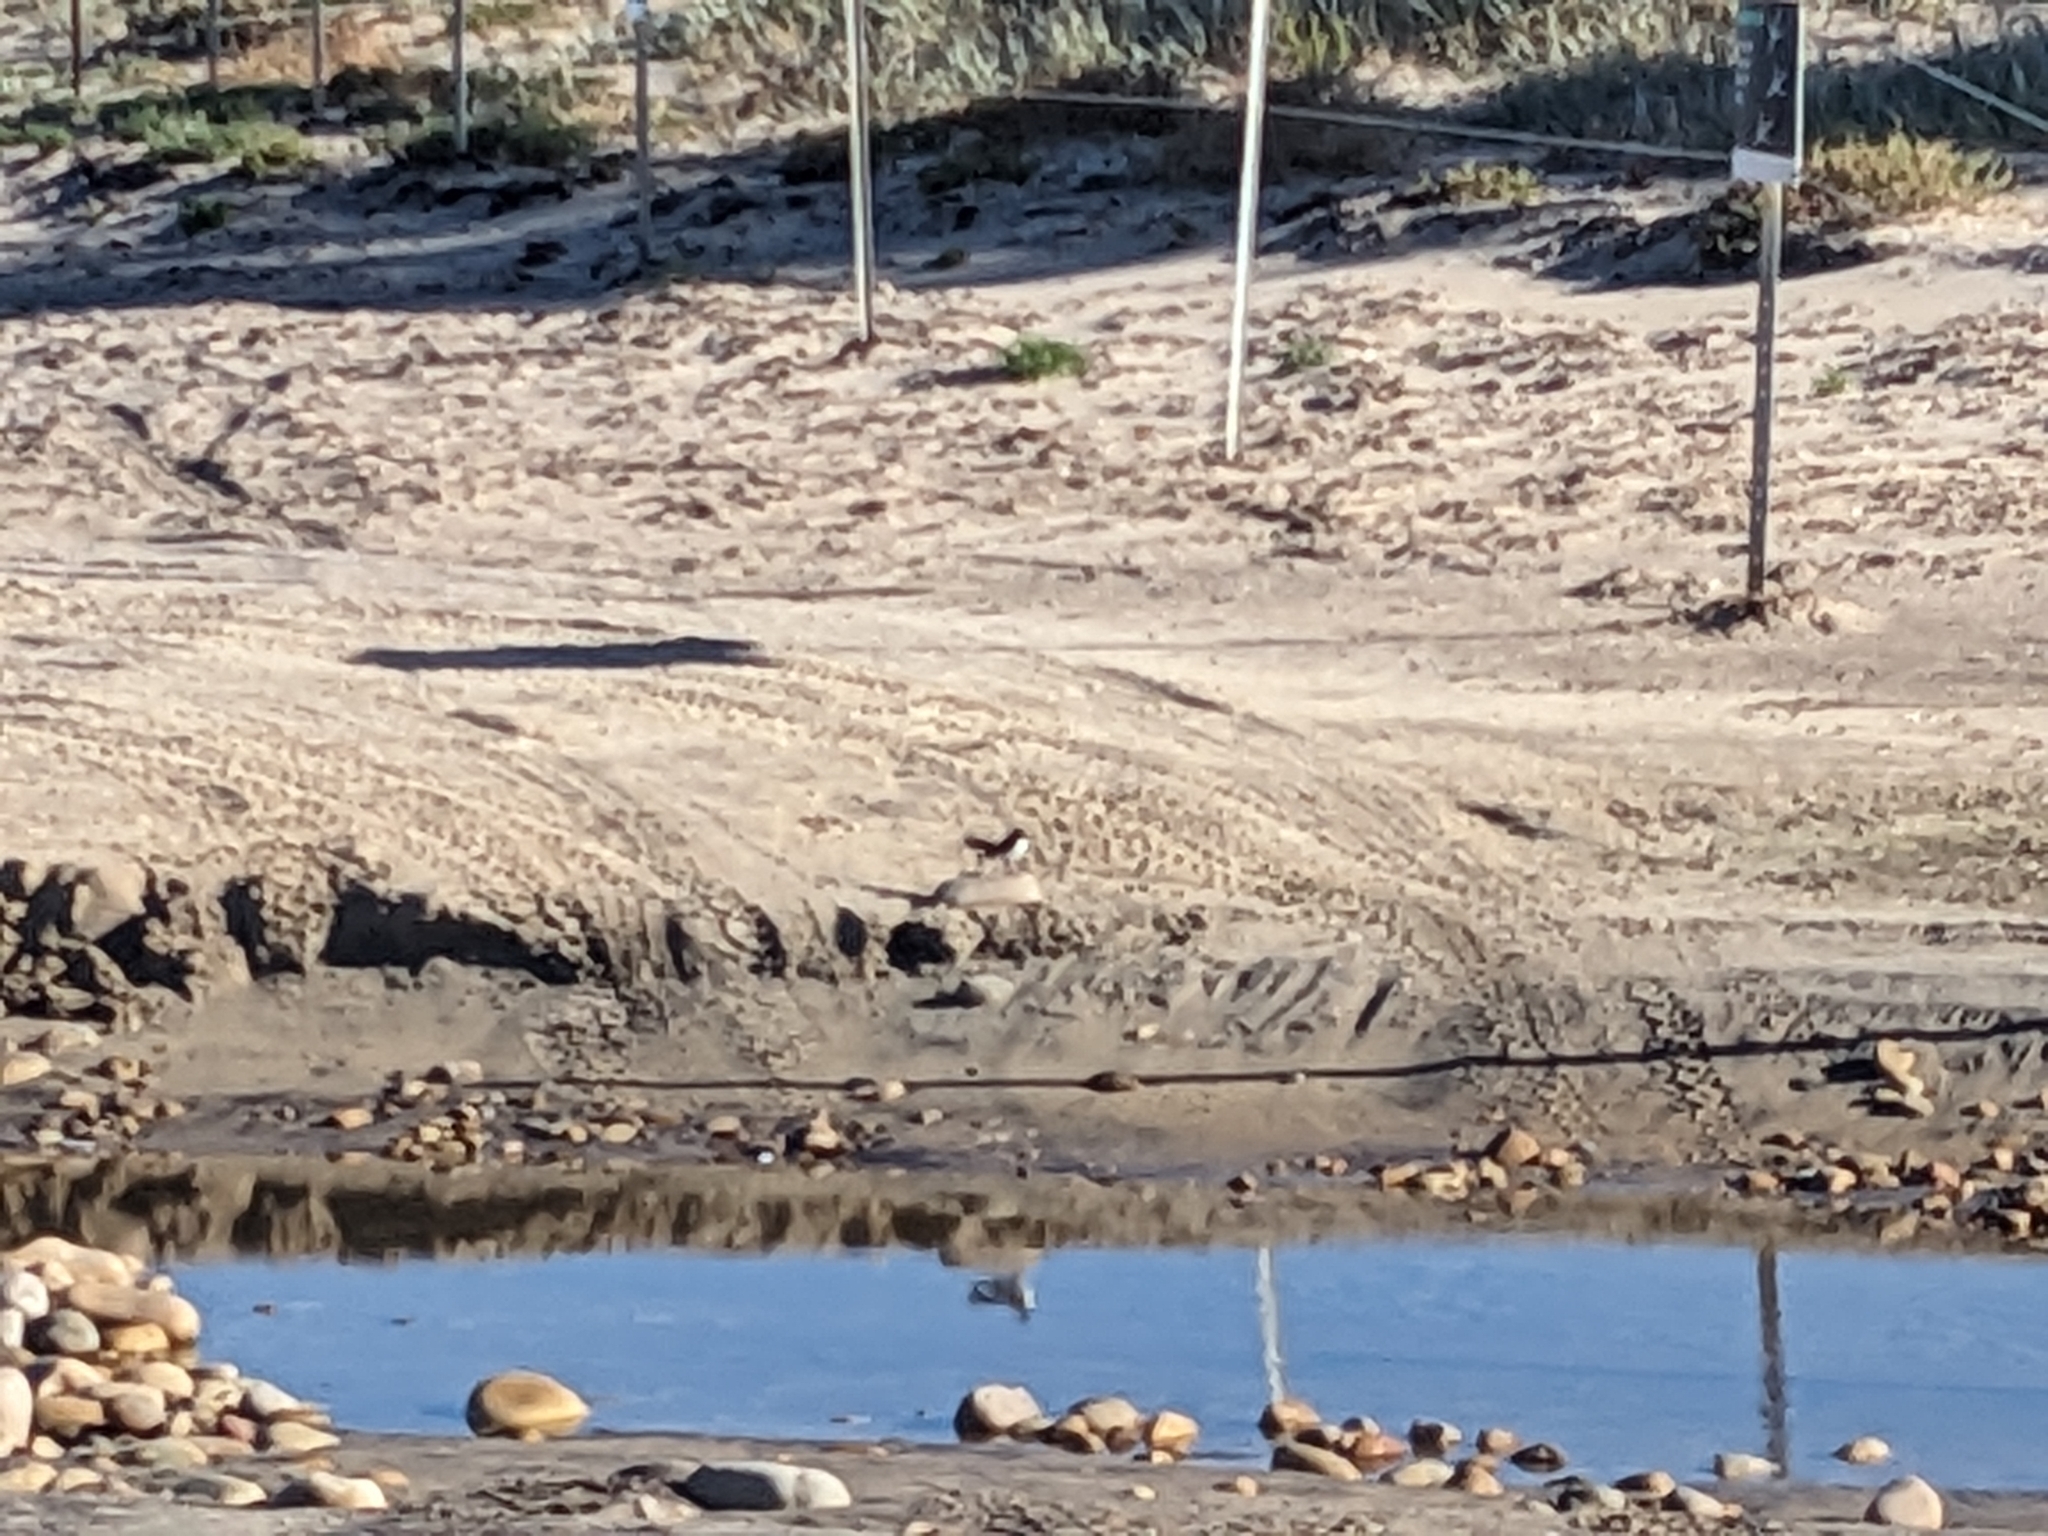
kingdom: Animalia
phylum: Chordata
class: Aves
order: Passeriformes
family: Rhipiduridae
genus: Rhipidura
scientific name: Rhipidura leucophrys
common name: Willie wagtail
